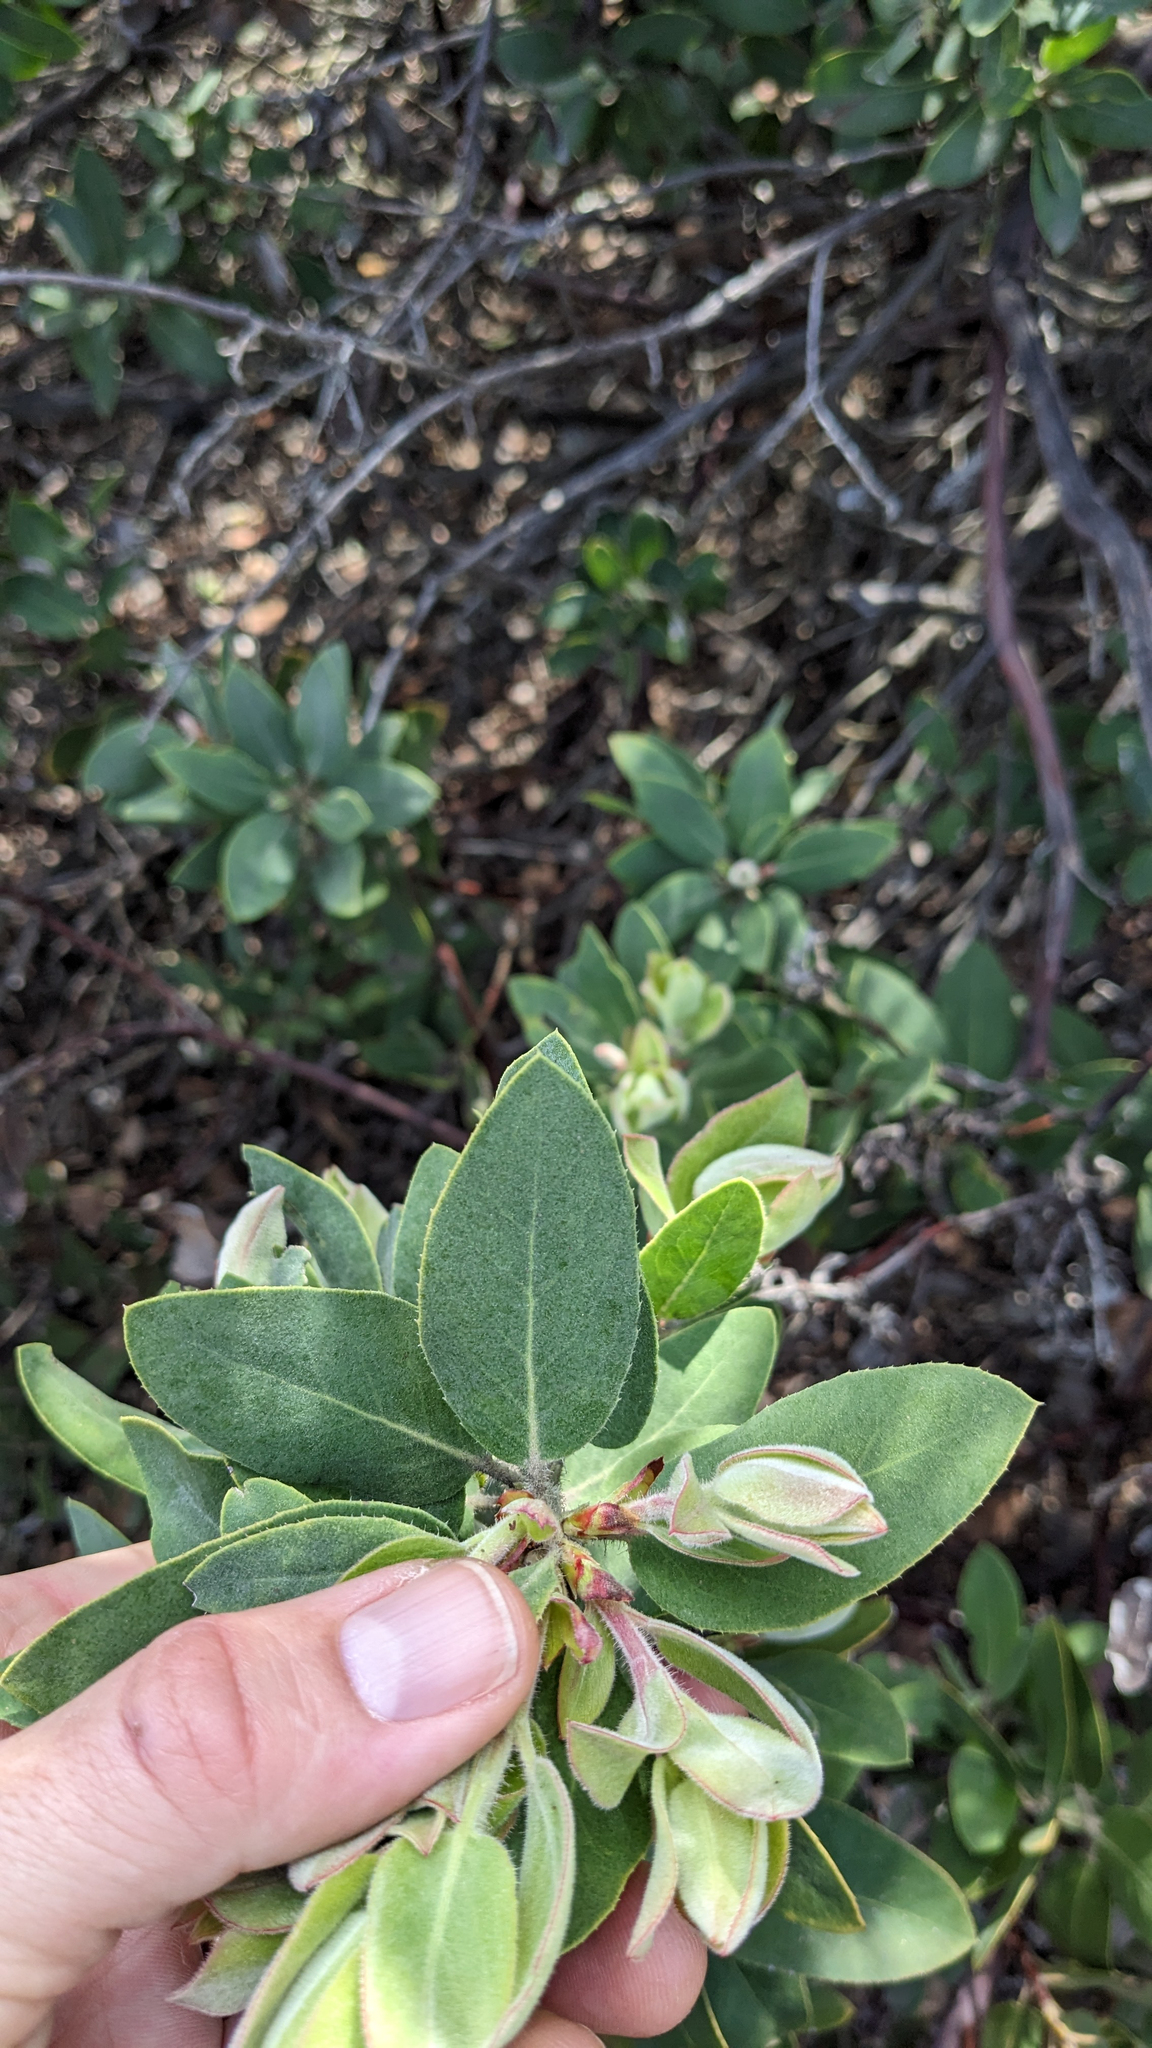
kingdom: Plantae
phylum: Tracheophyta
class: Magnoliopsida
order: Ericales
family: Ericaceae
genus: Arctostaphylos
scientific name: Arctostaphylos glandulosa
